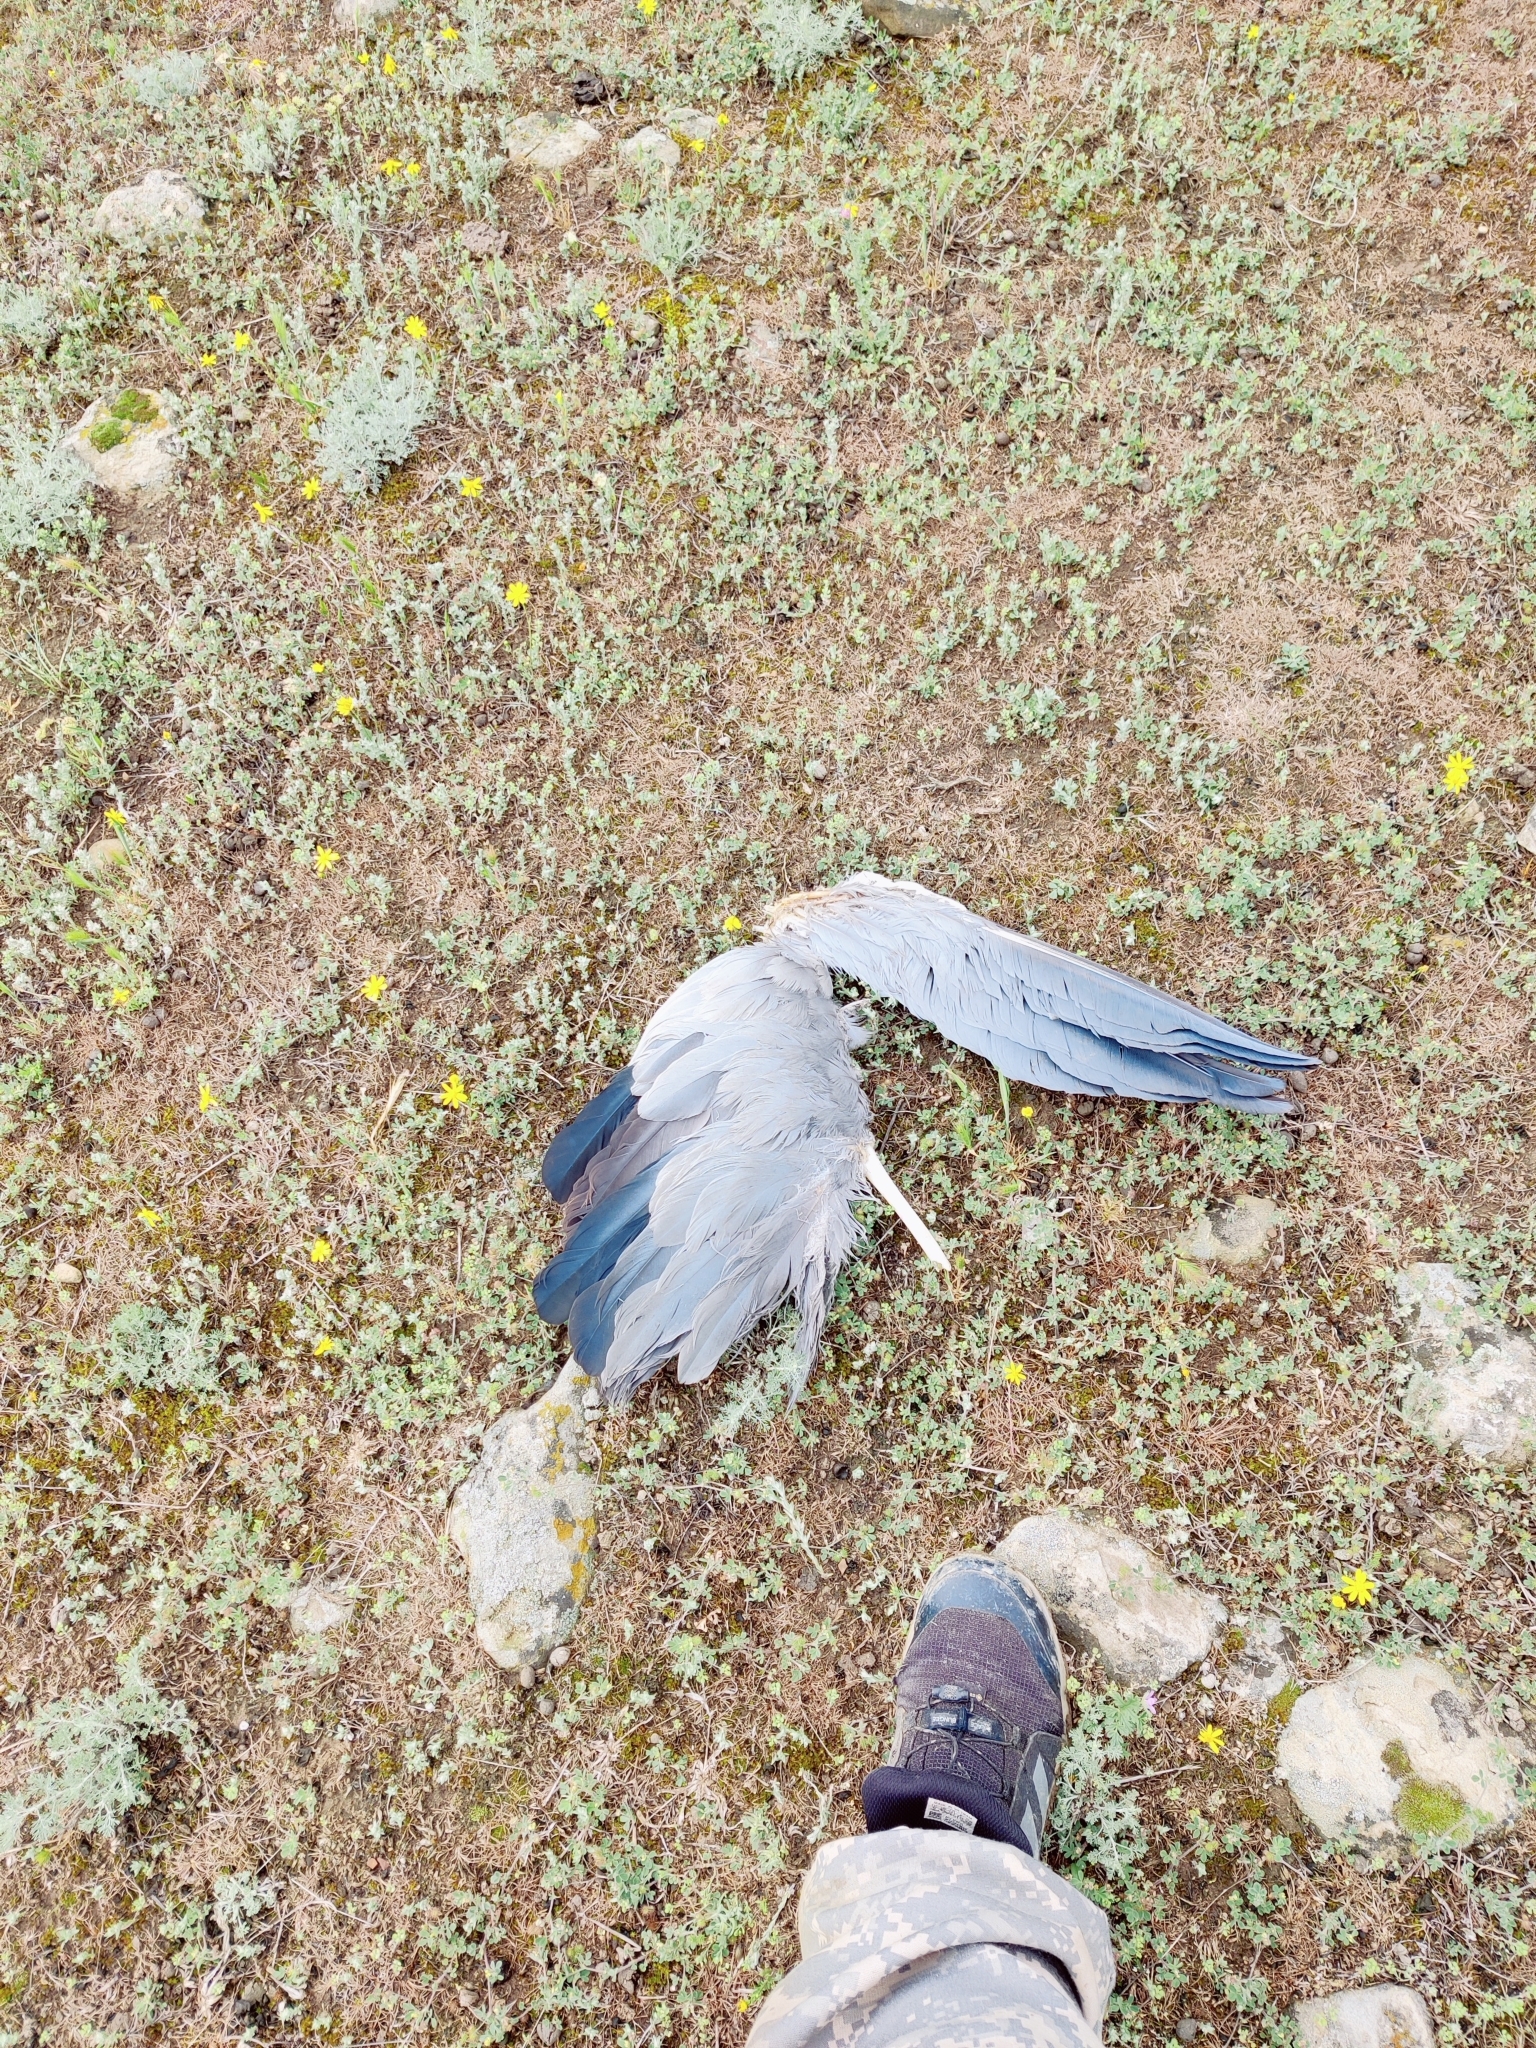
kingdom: Animalia
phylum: Chordata
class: Aves
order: Pelecaniformes
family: Ardeidae
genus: Ardea
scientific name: Ardea cinerea
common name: Grey heron
